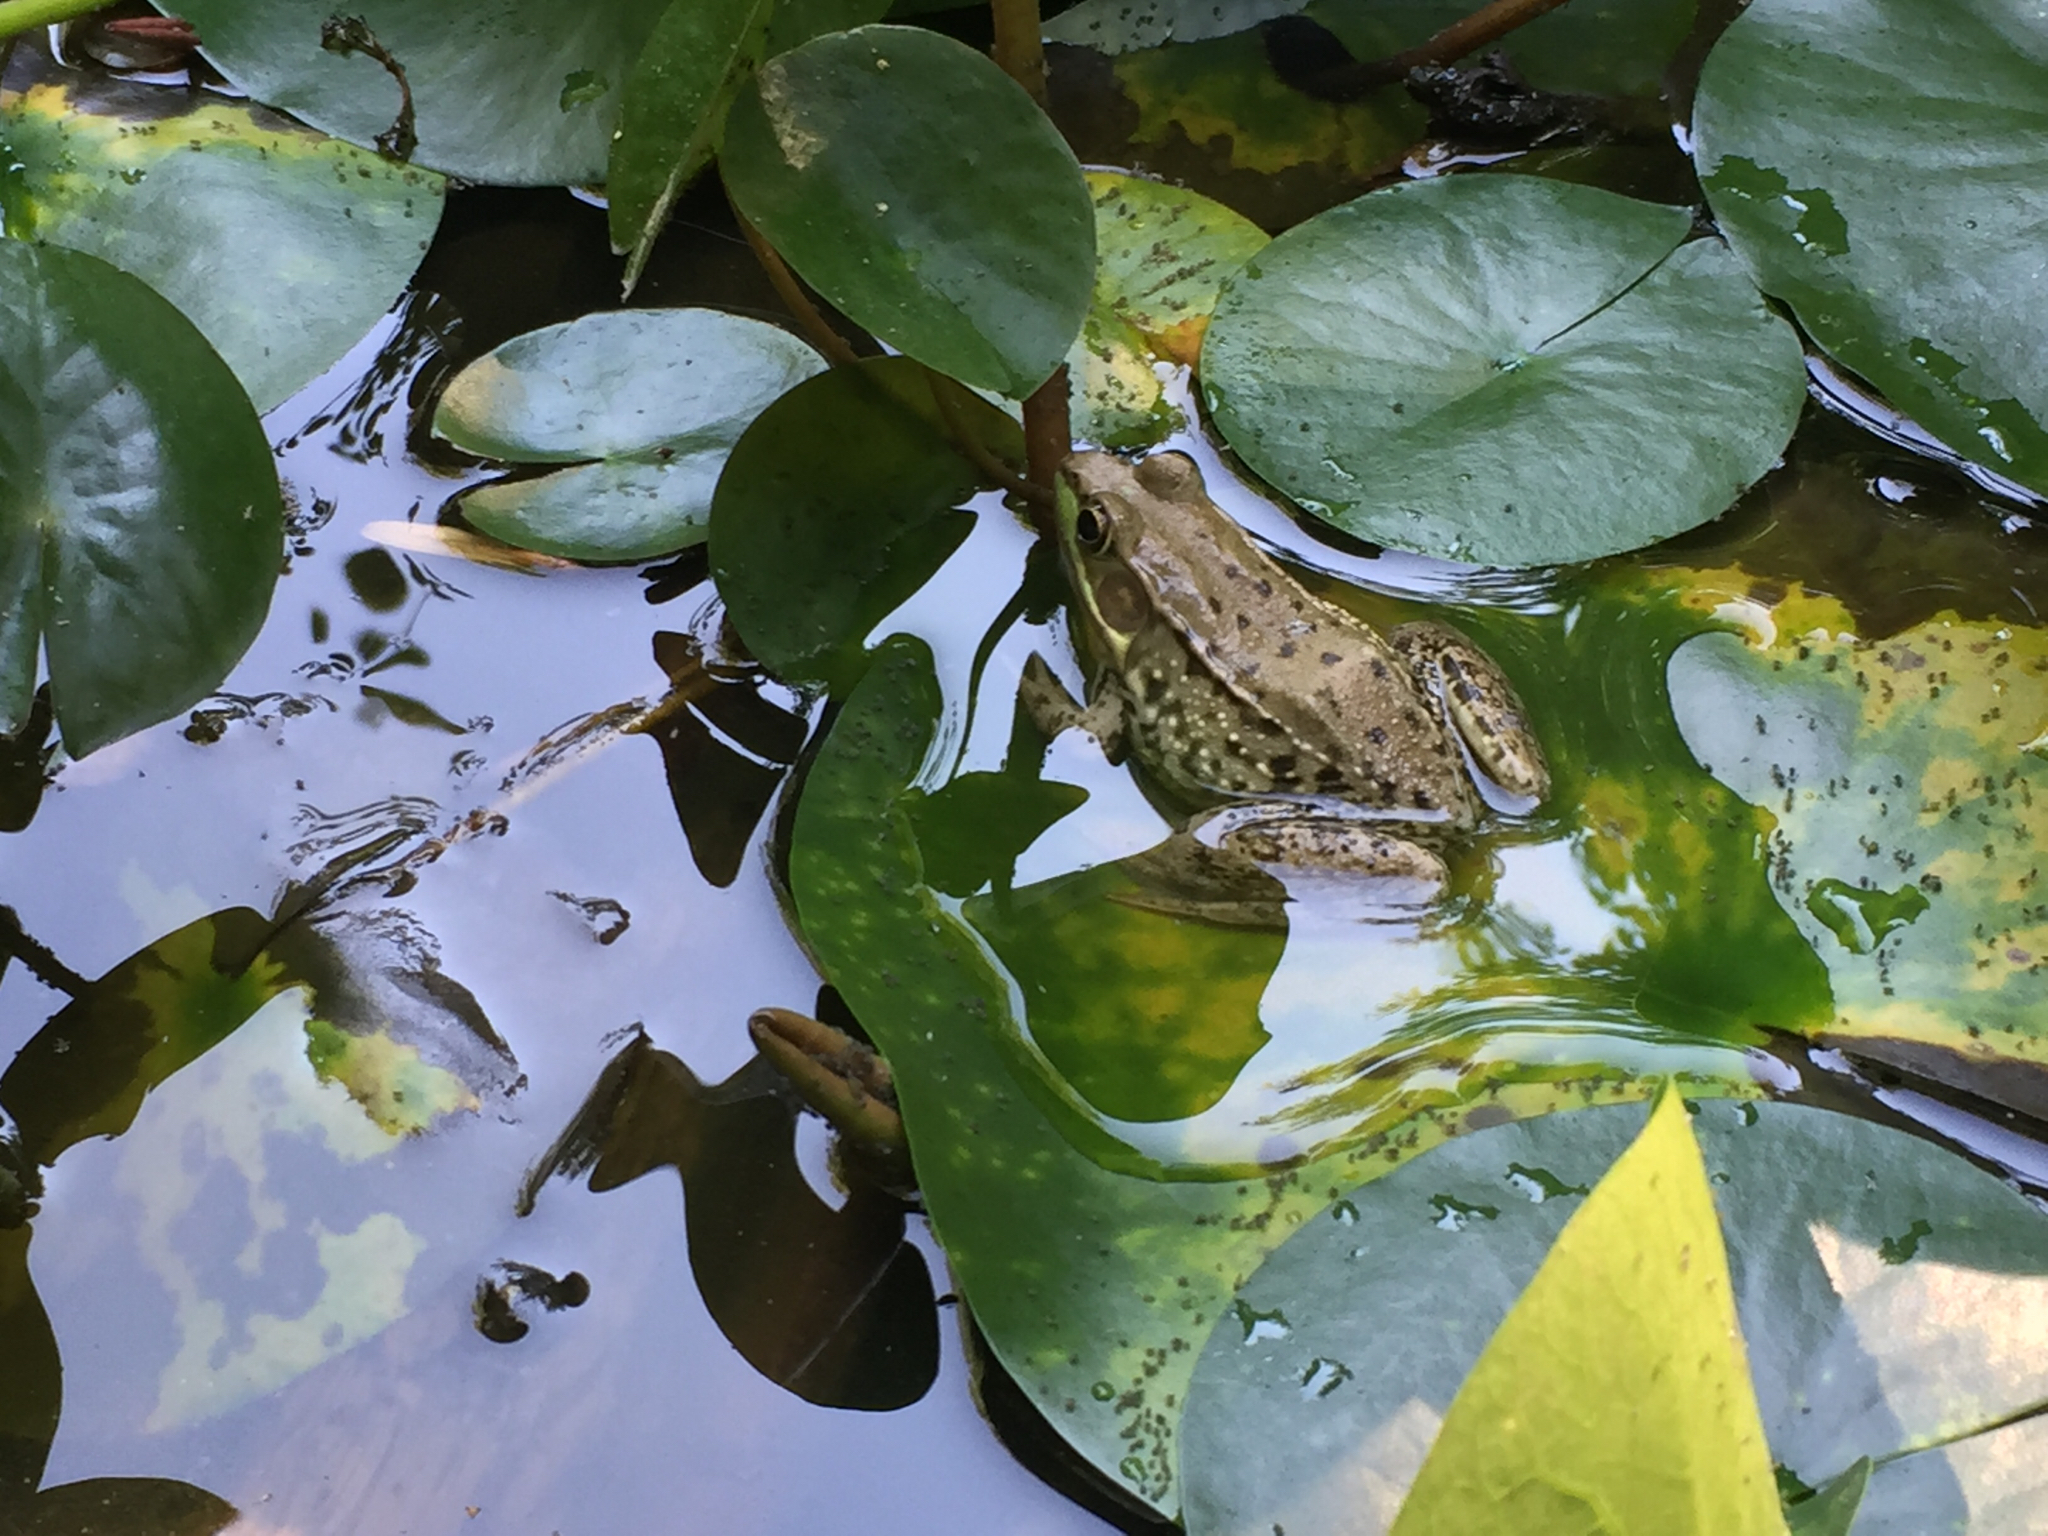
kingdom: Animalia
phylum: Chordata
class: Amphibia
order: Anura
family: Ranidae
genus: Lithobates
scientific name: Lithobates clamitans
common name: Green frog
